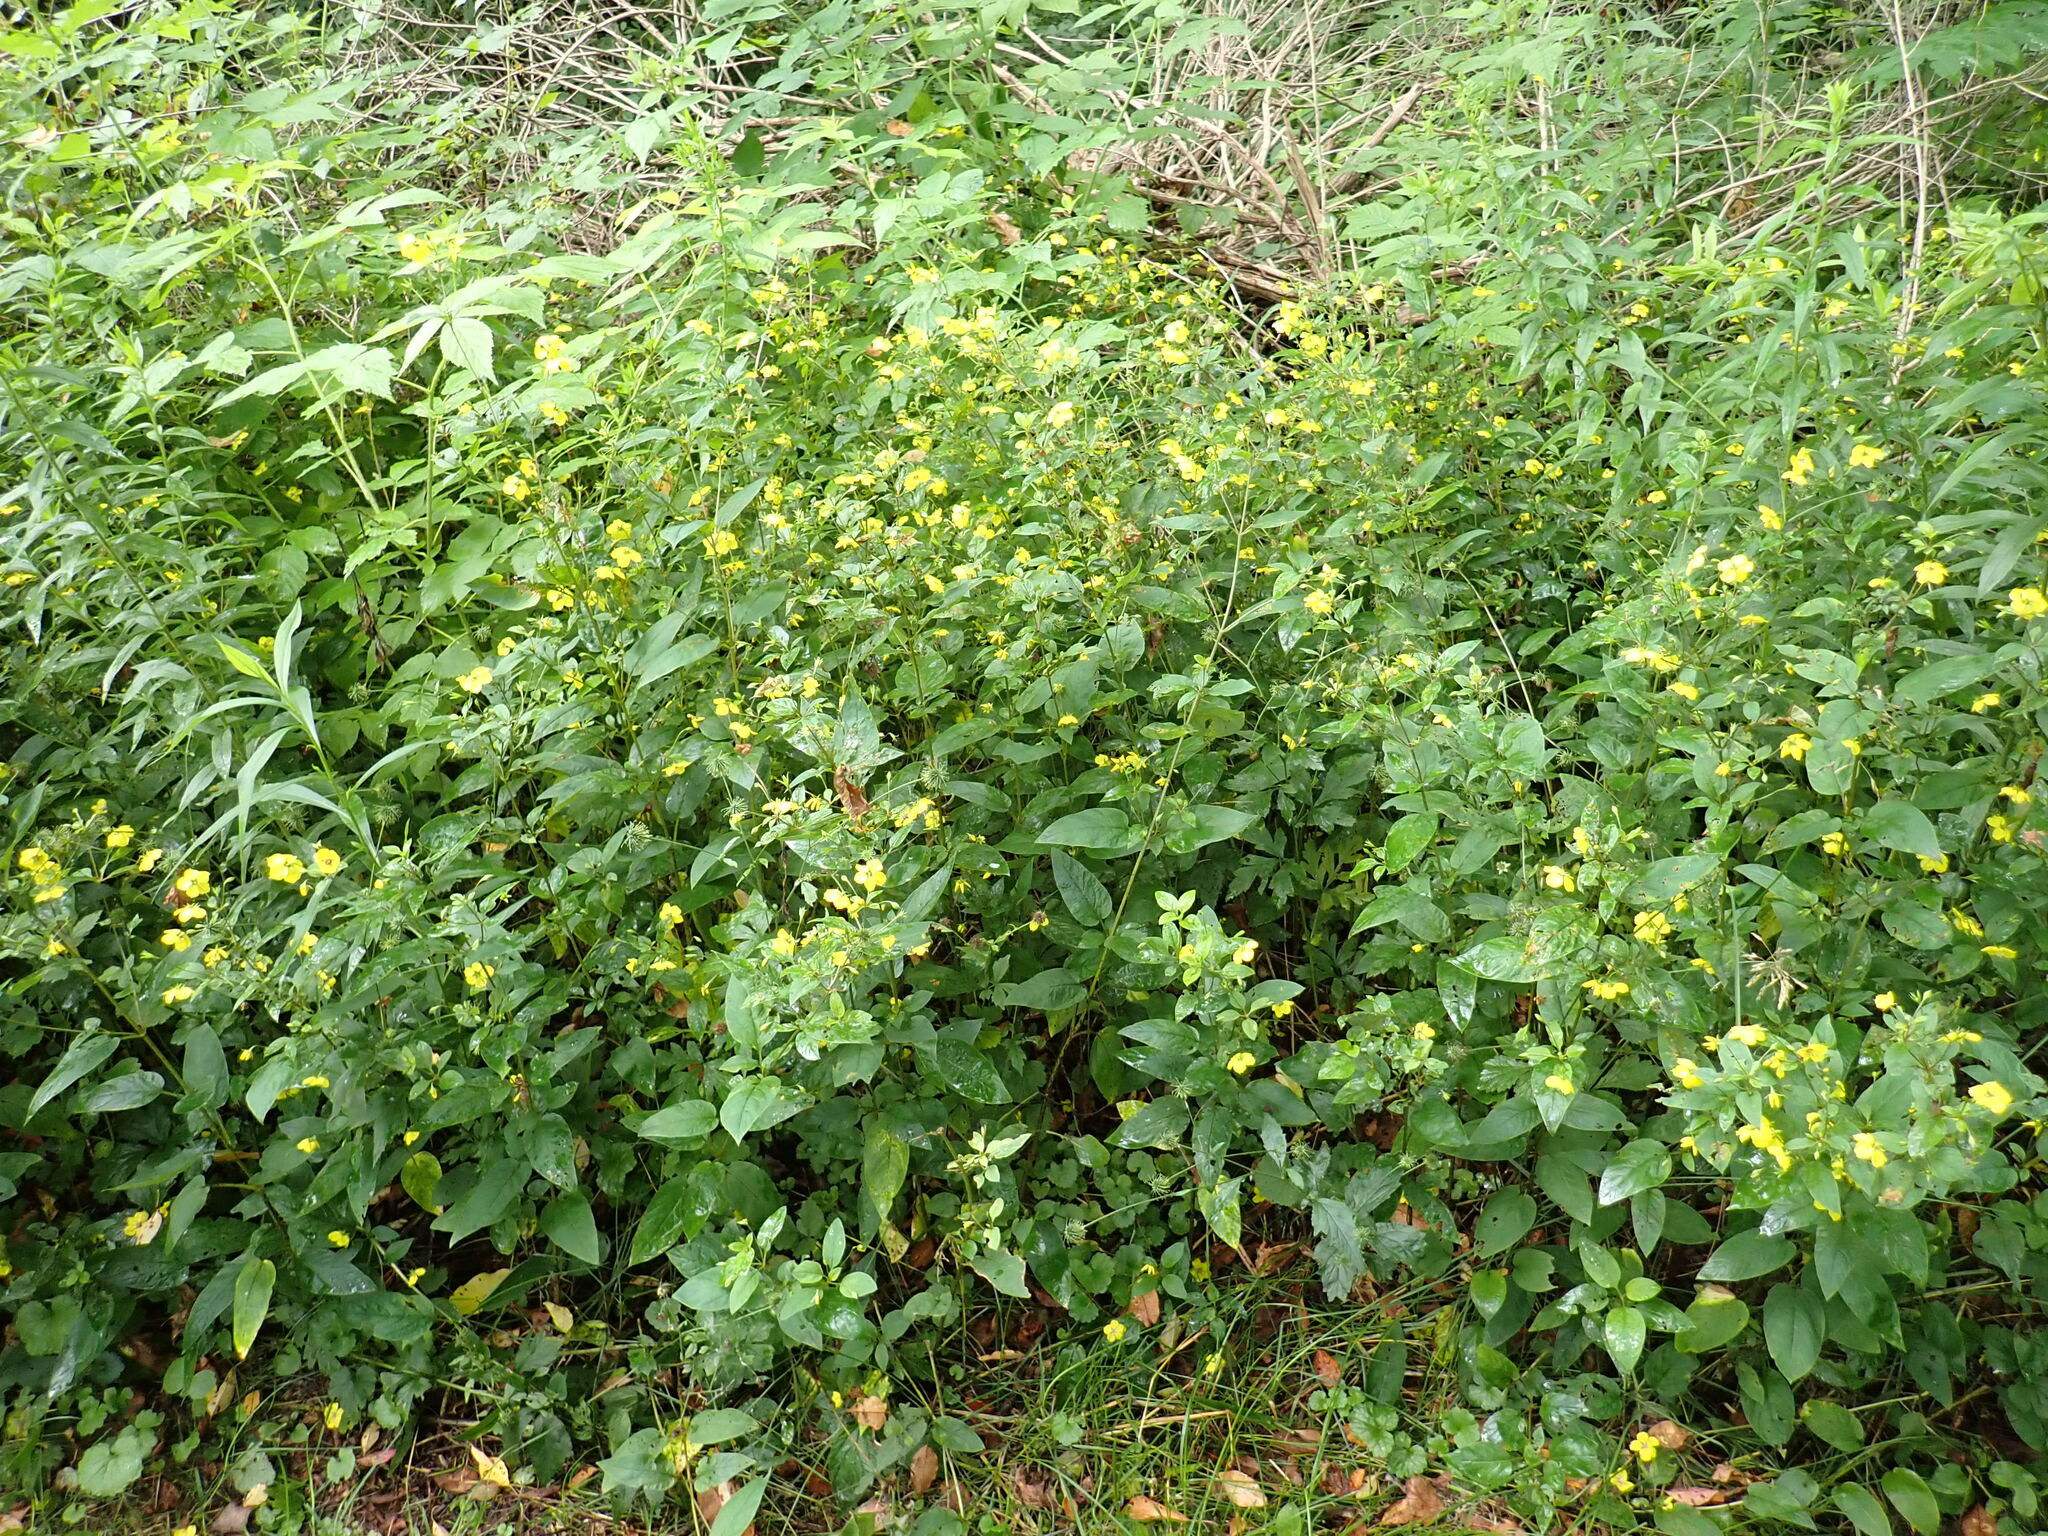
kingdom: Plantae
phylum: Tracheophyta
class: Magnoliopsida
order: Ericales
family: Primulaceae
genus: Lysimachia
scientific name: Lysimachia ciliata
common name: Fringed loosestrife
